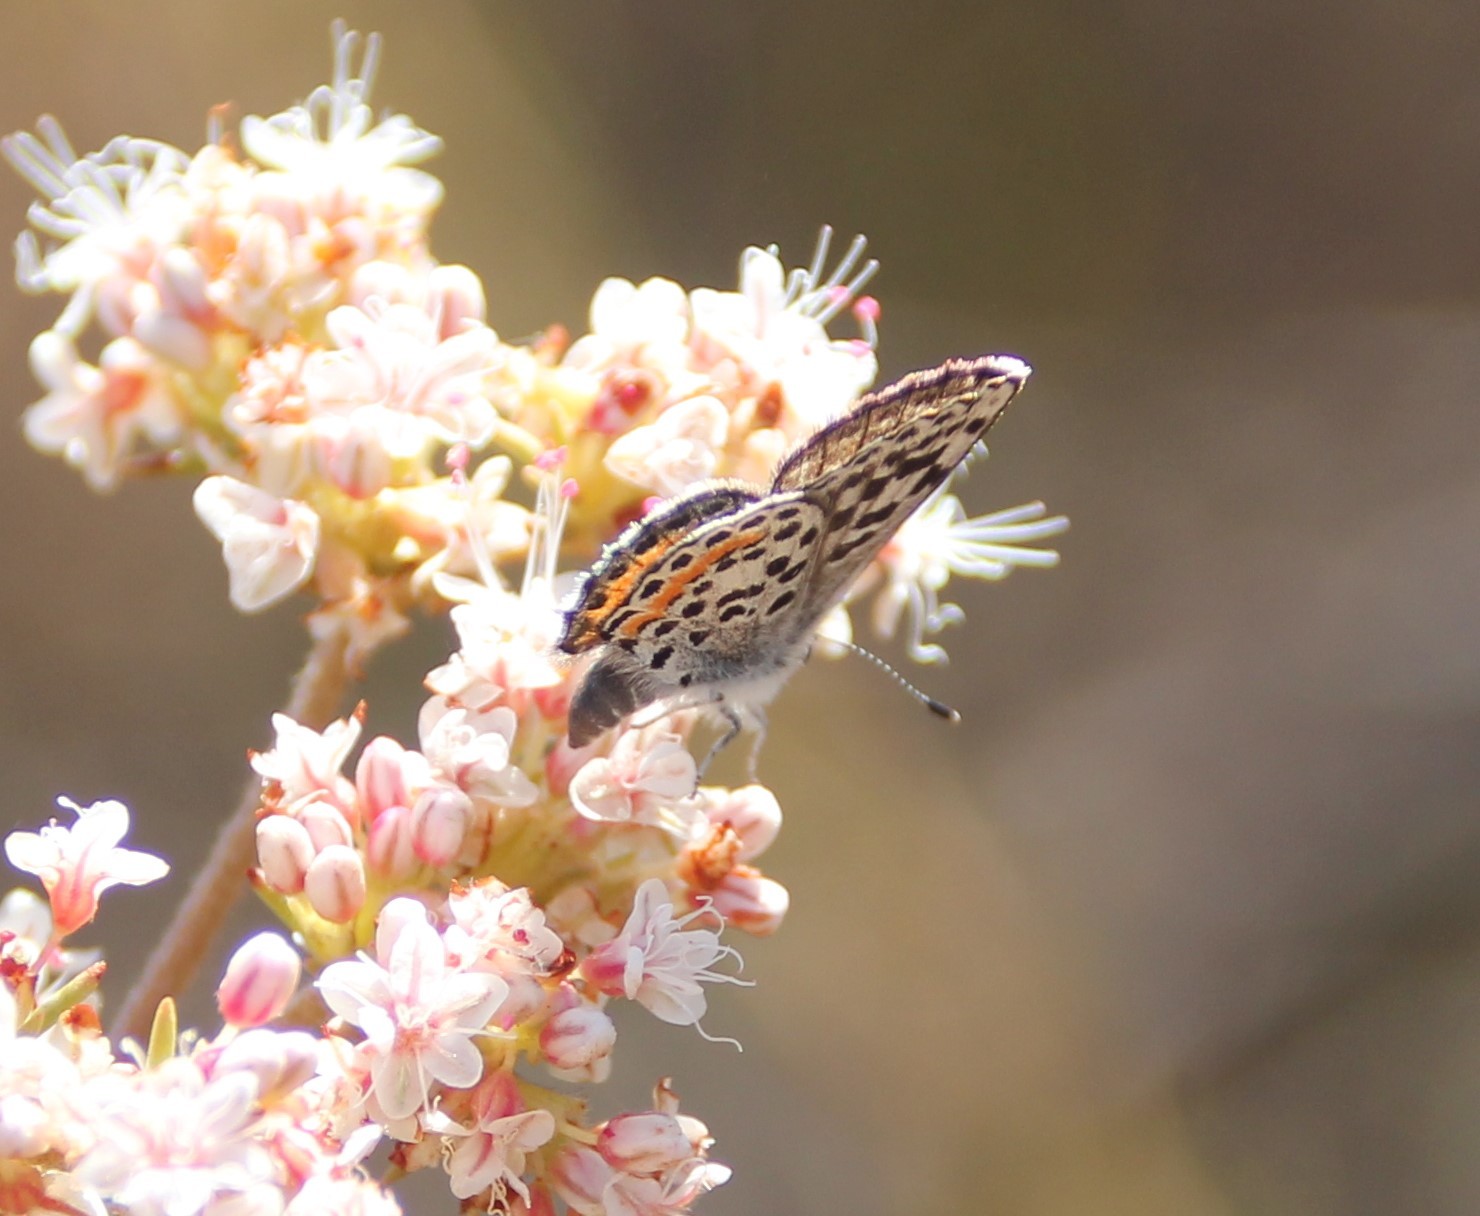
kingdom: Animalia
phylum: Arthropoda
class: Insecta
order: Lepidoptera
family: Lycaenidae
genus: Philotes
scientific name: Philotes bernardino
